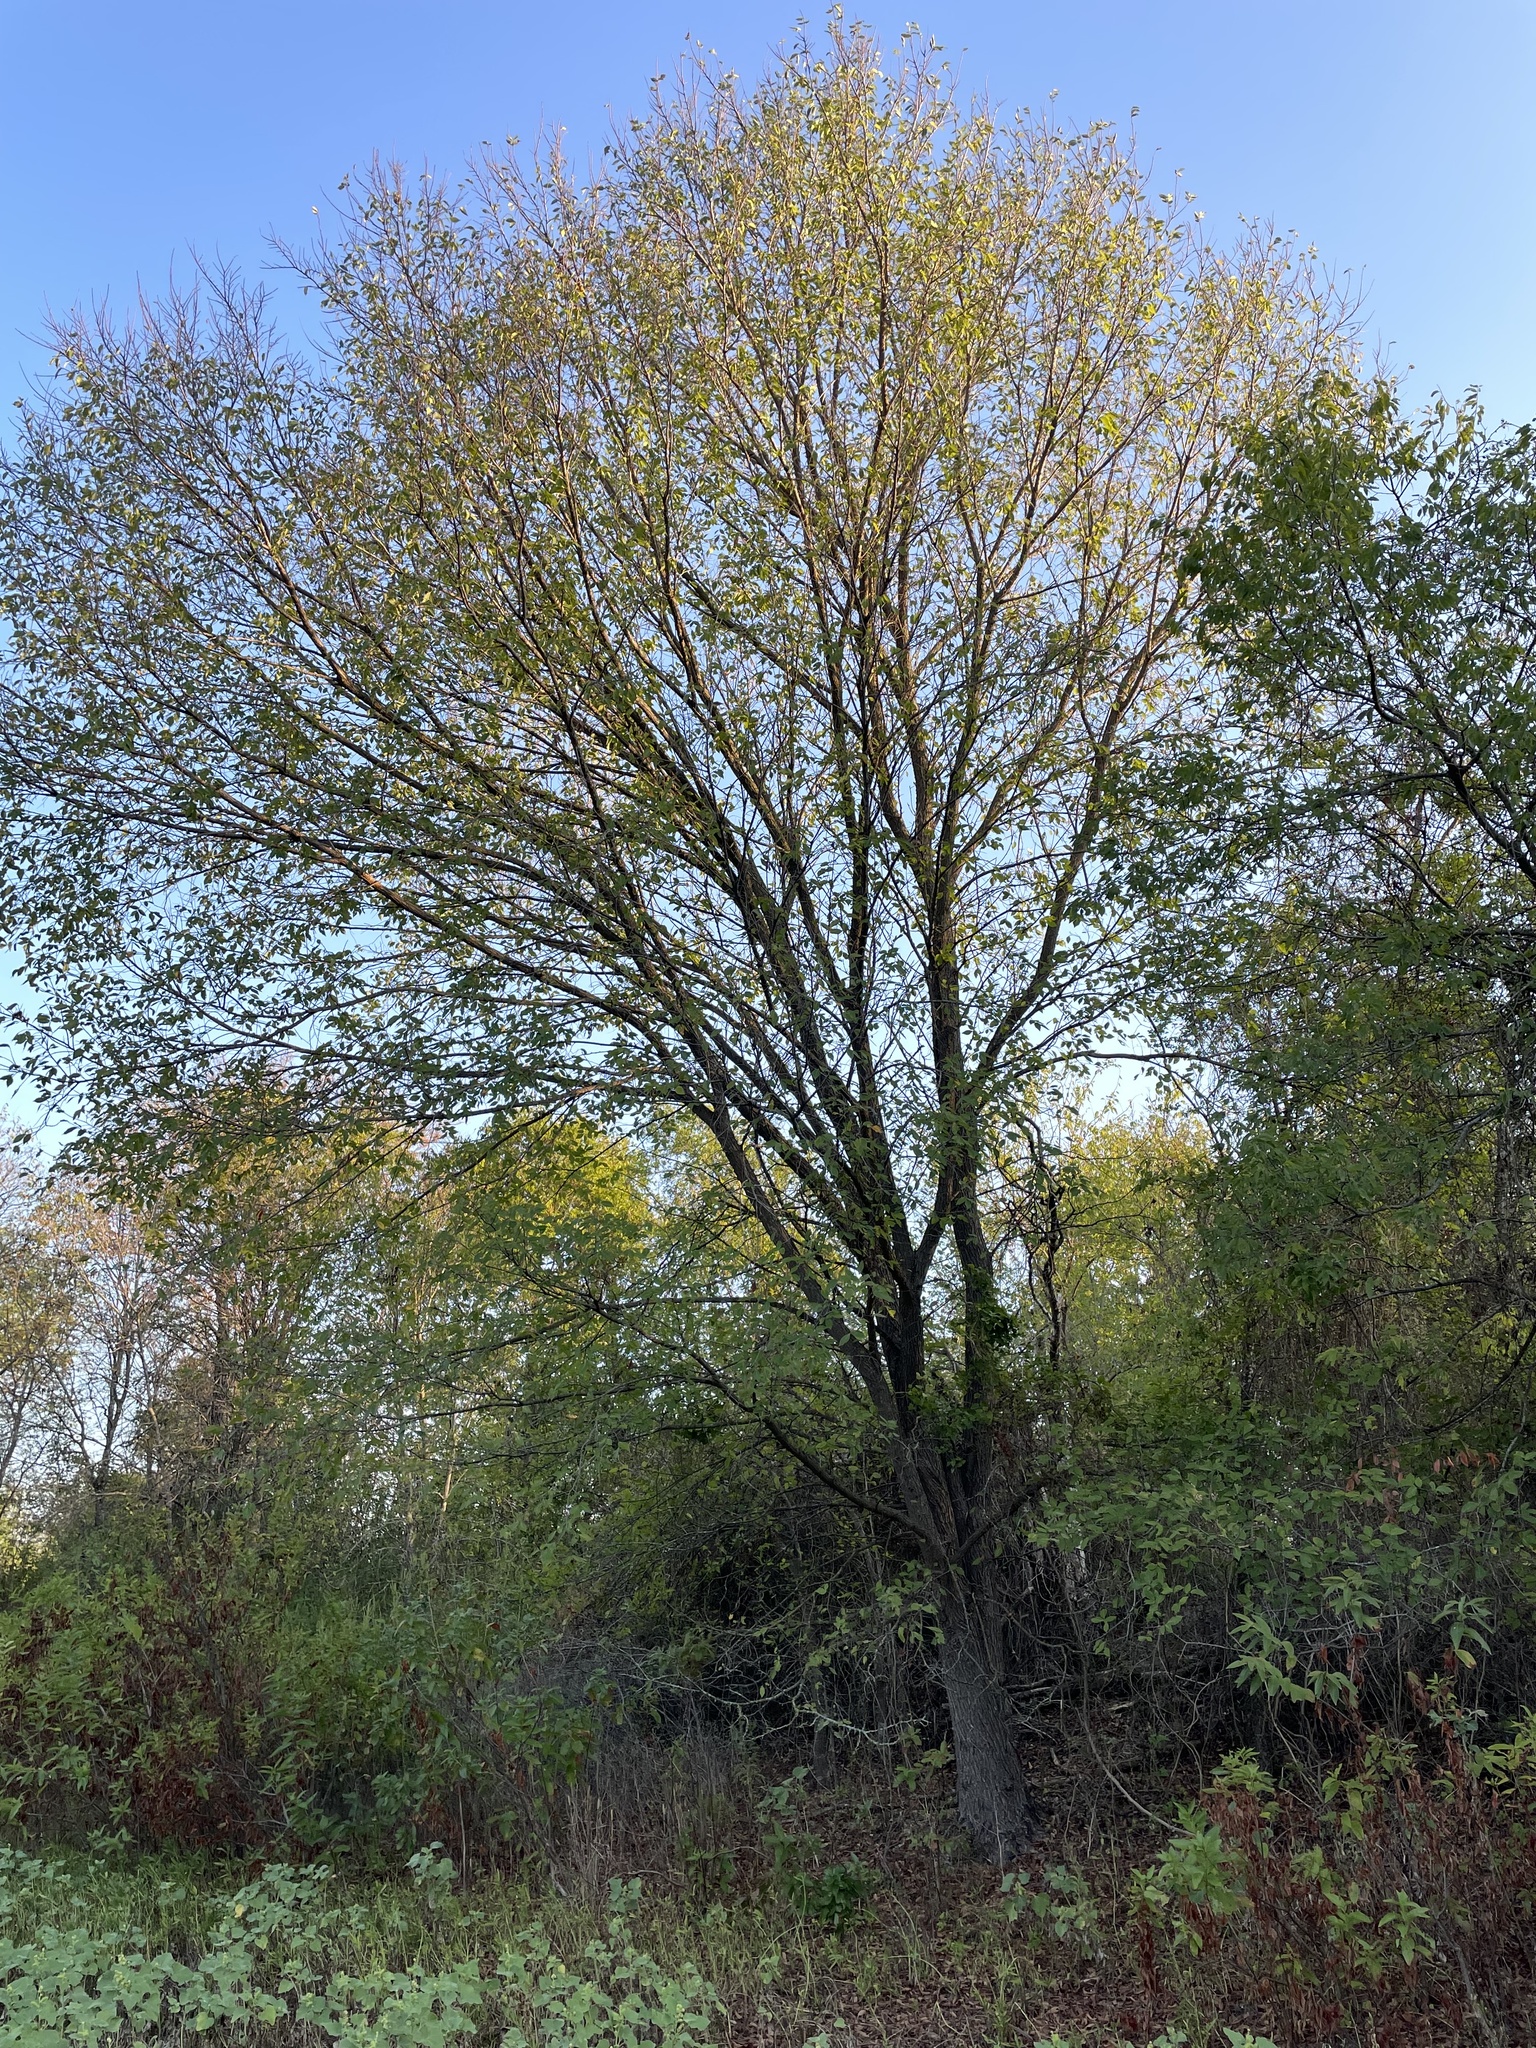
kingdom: Plantae
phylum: Tracheophyta
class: Magnoliopsida
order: Rosales
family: Ulmaceae
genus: Ulmus
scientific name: Ulmus americana
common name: American elm
